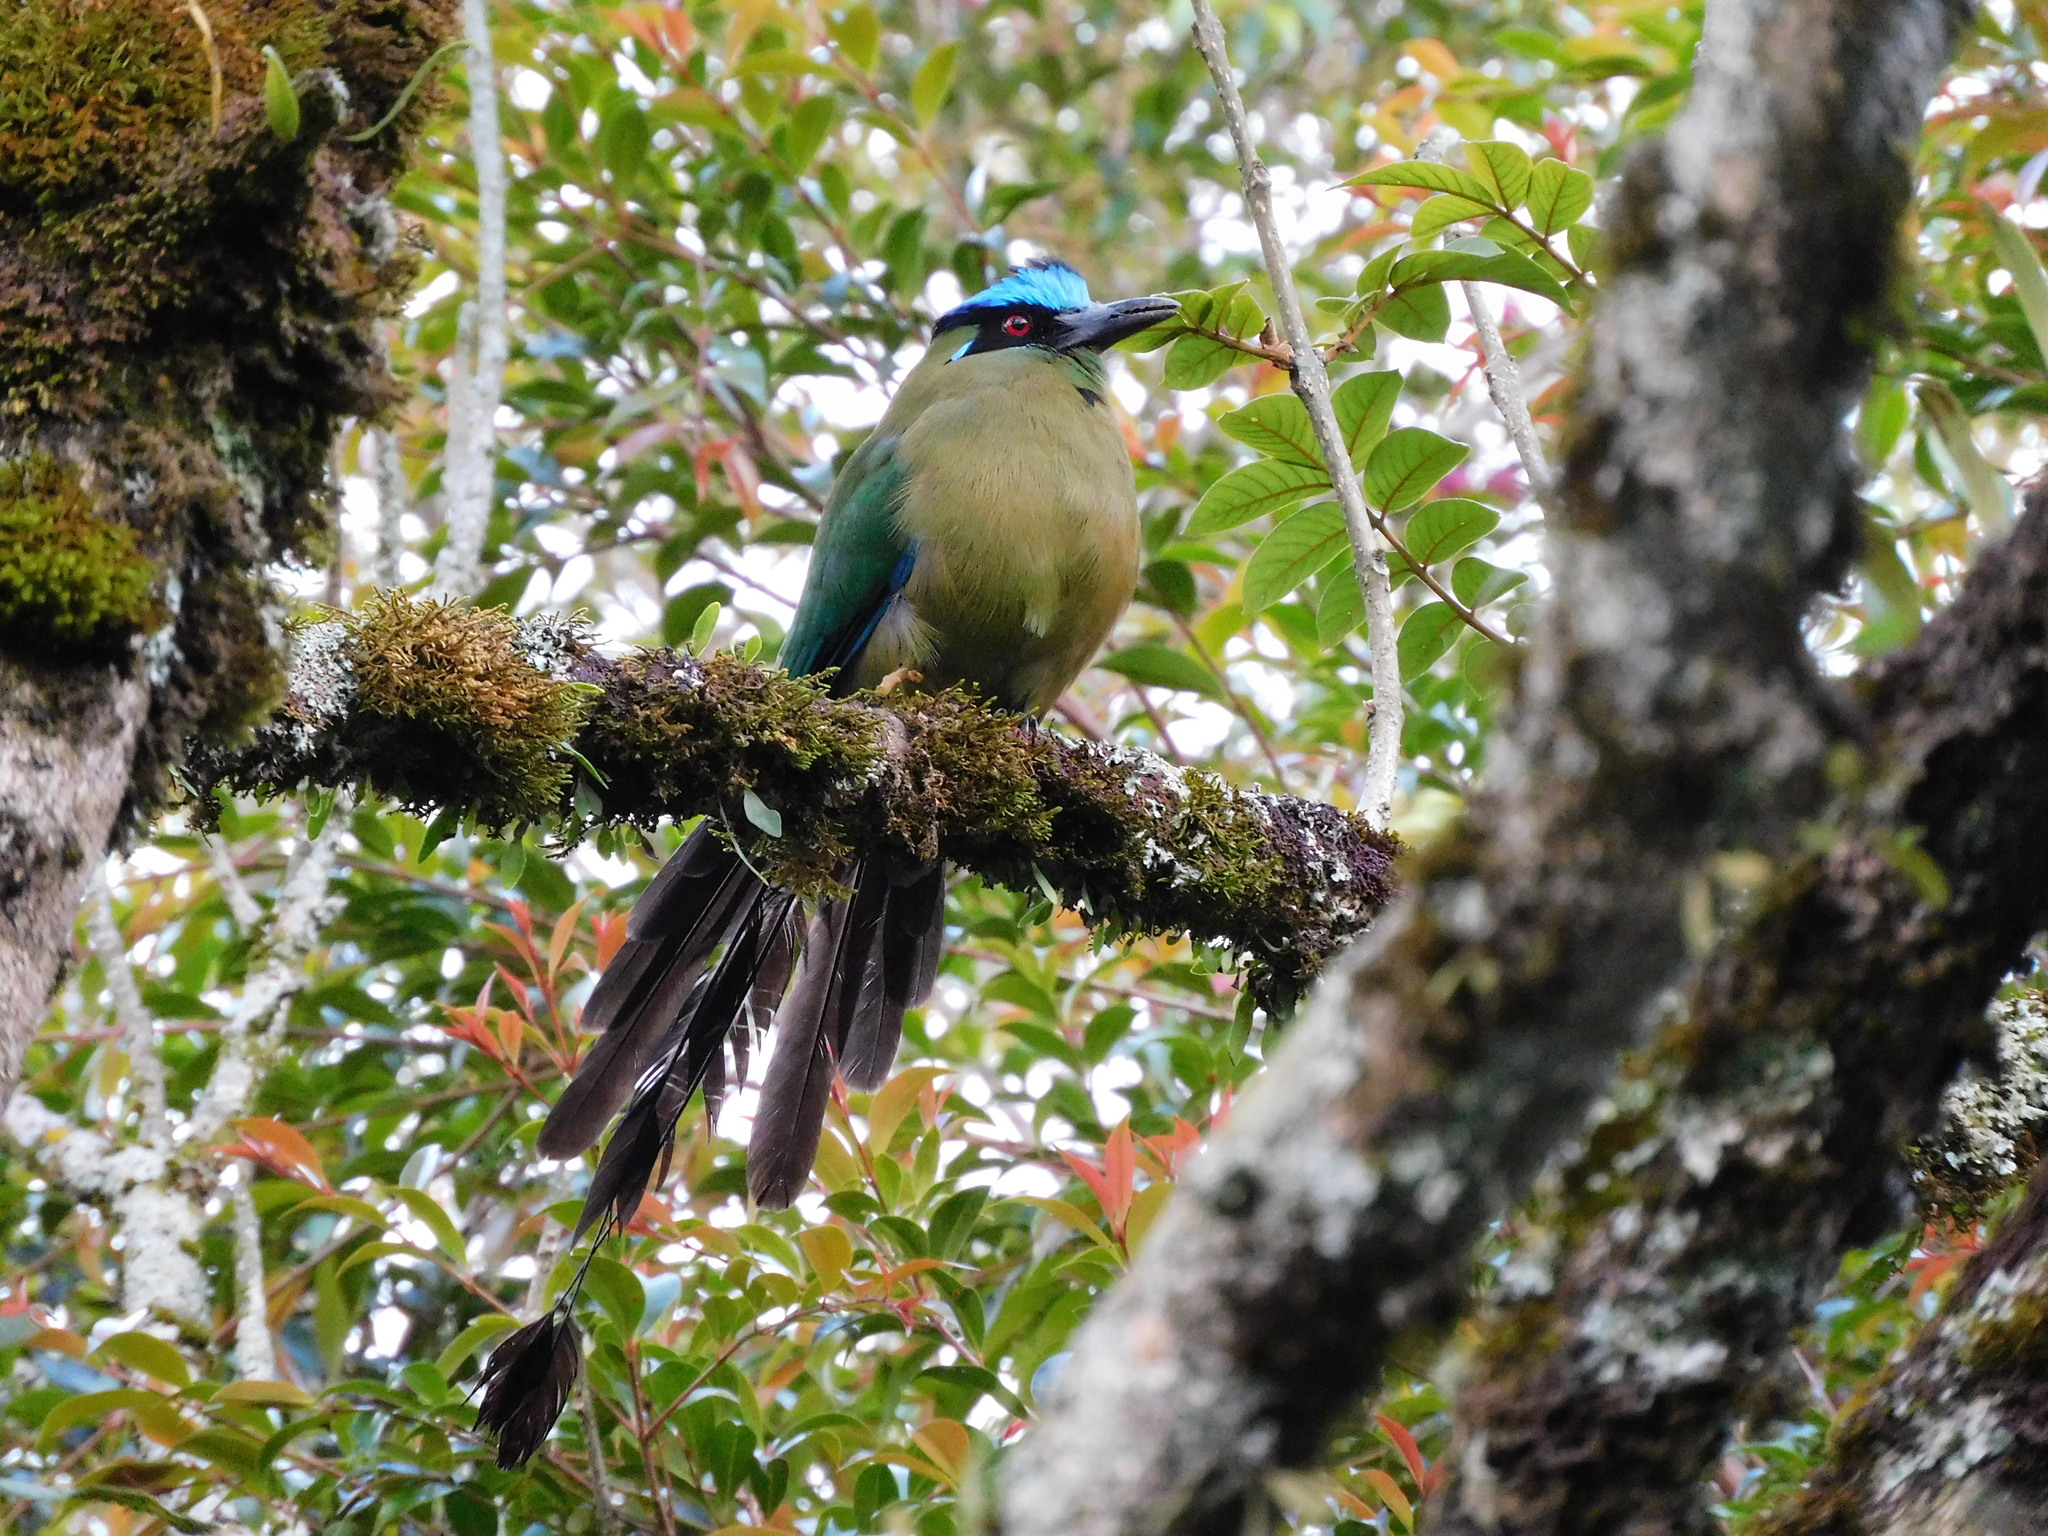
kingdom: Animalia
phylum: Chordata
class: Aves
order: Coraciiformes
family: Momotidae
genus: Momotus
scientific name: Momotus aequatorialis
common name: Andean motmot
